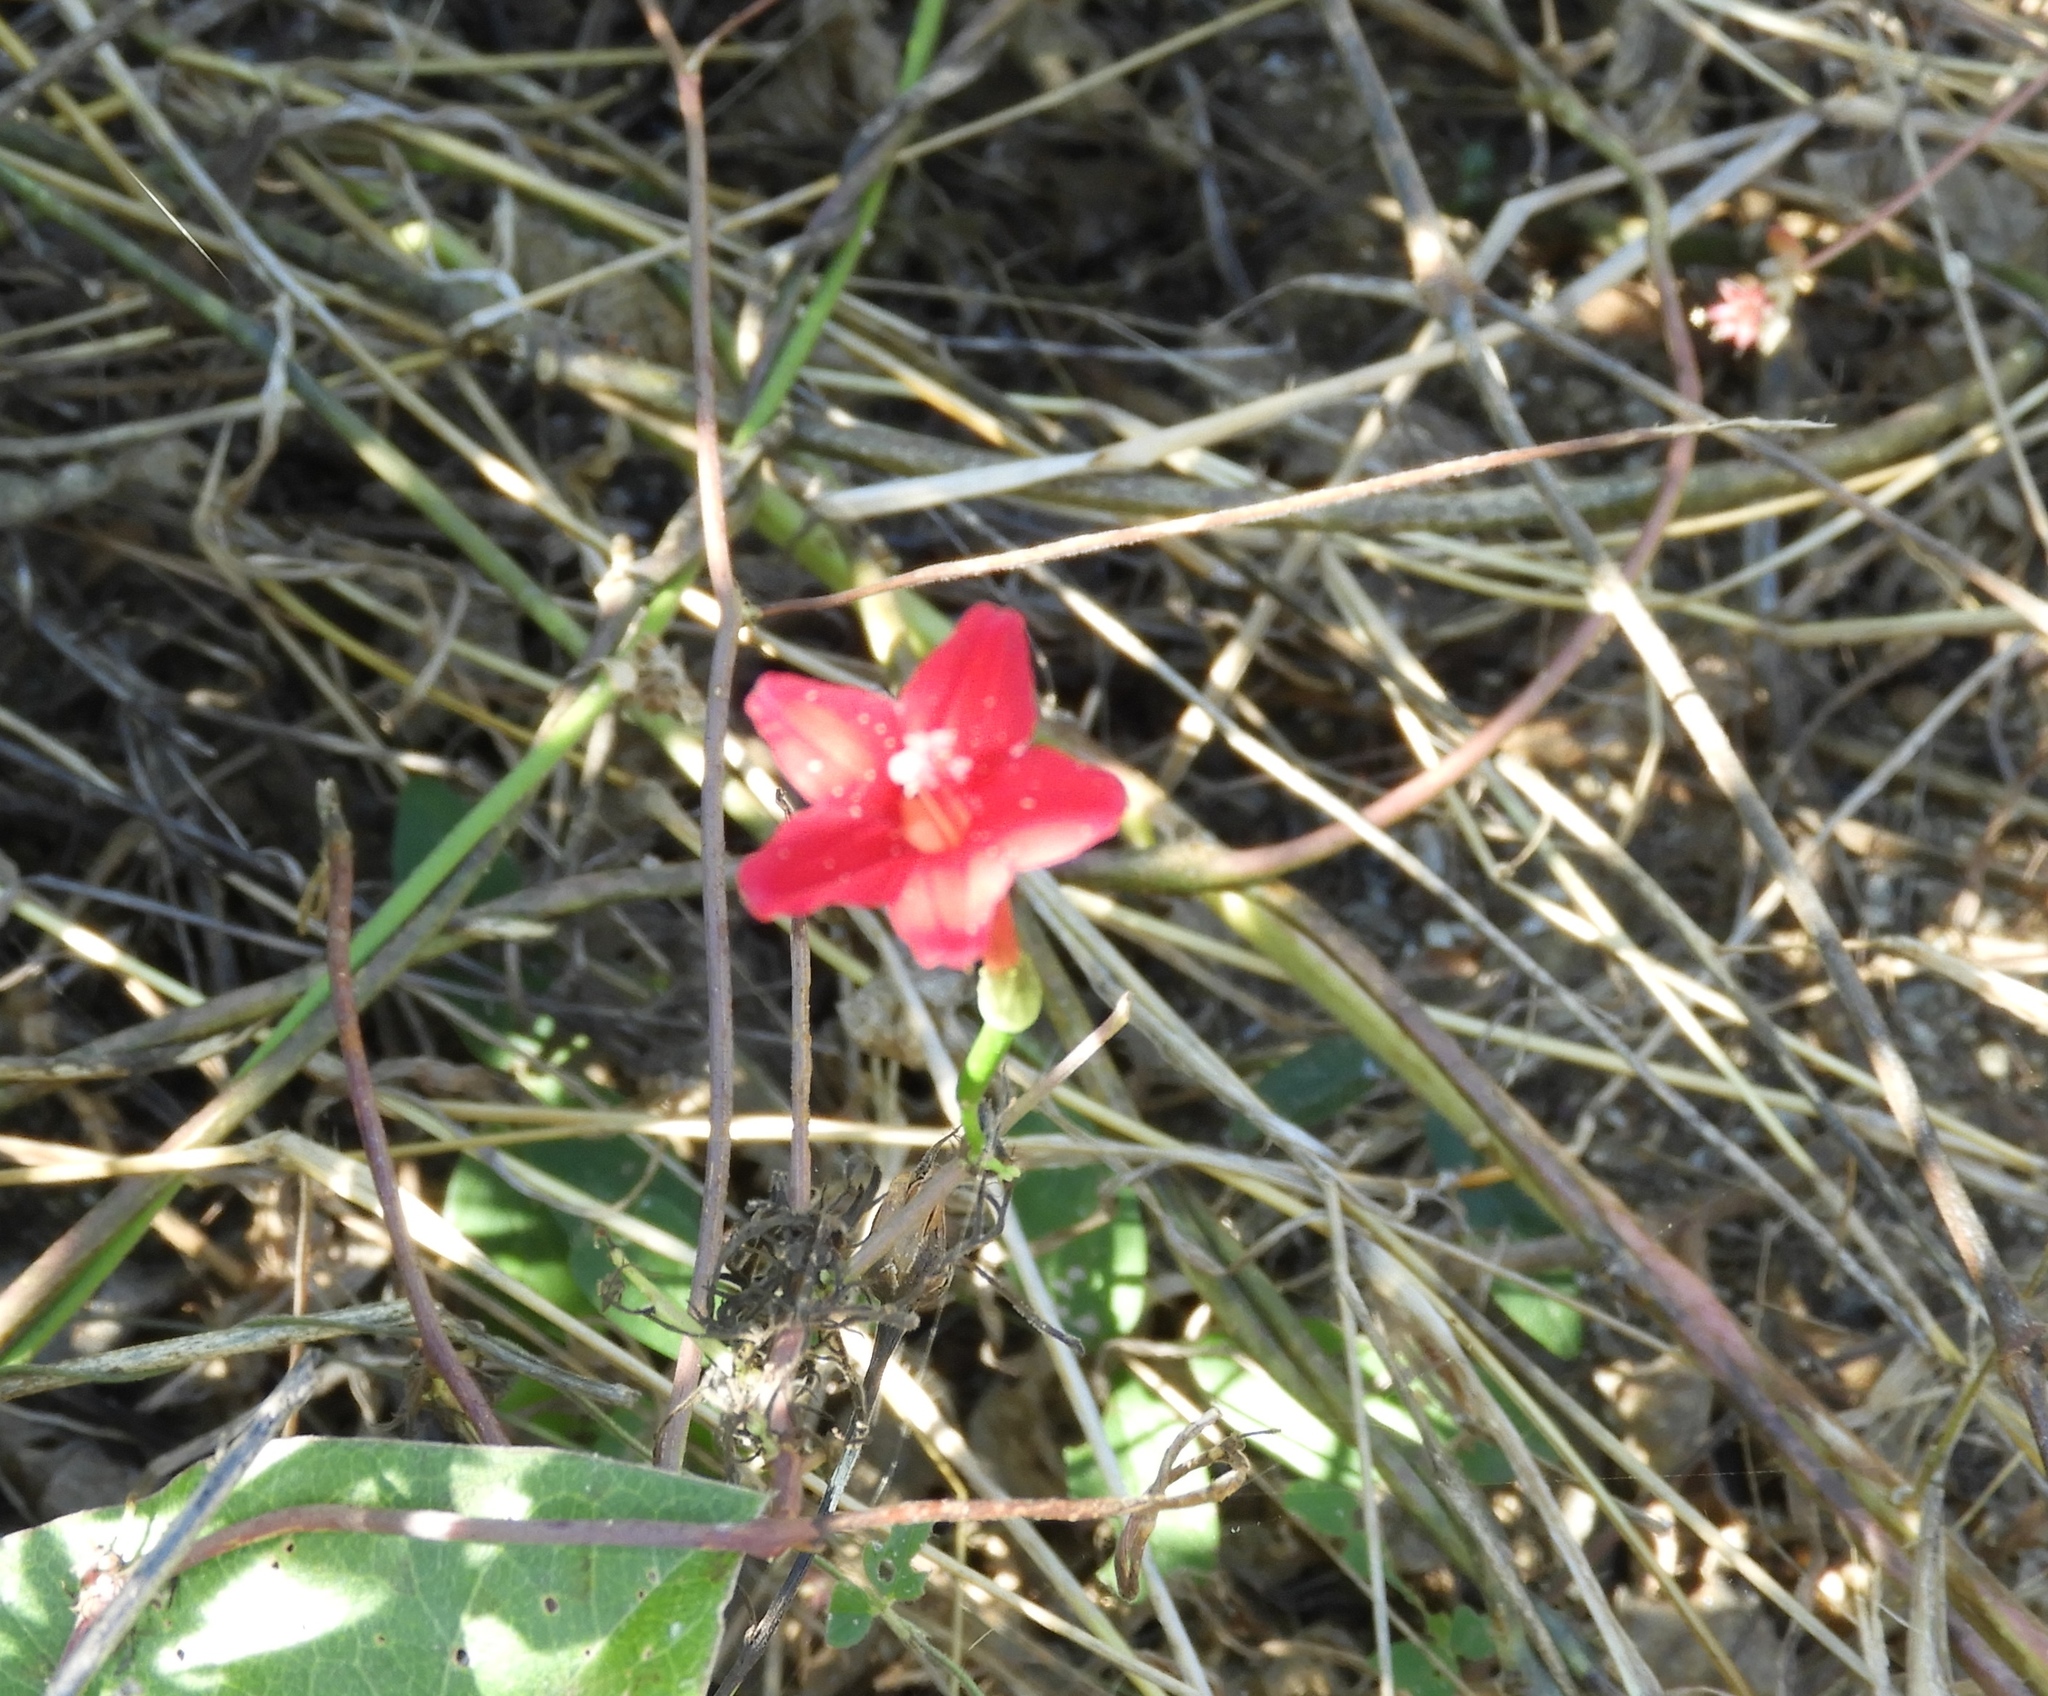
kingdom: Plantae
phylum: Tracheophyta
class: Magnoliopsida
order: Solanales
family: Convolvulaceae
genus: Ipomoea
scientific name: Ipomoea quamoclit
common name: Cypress vine
